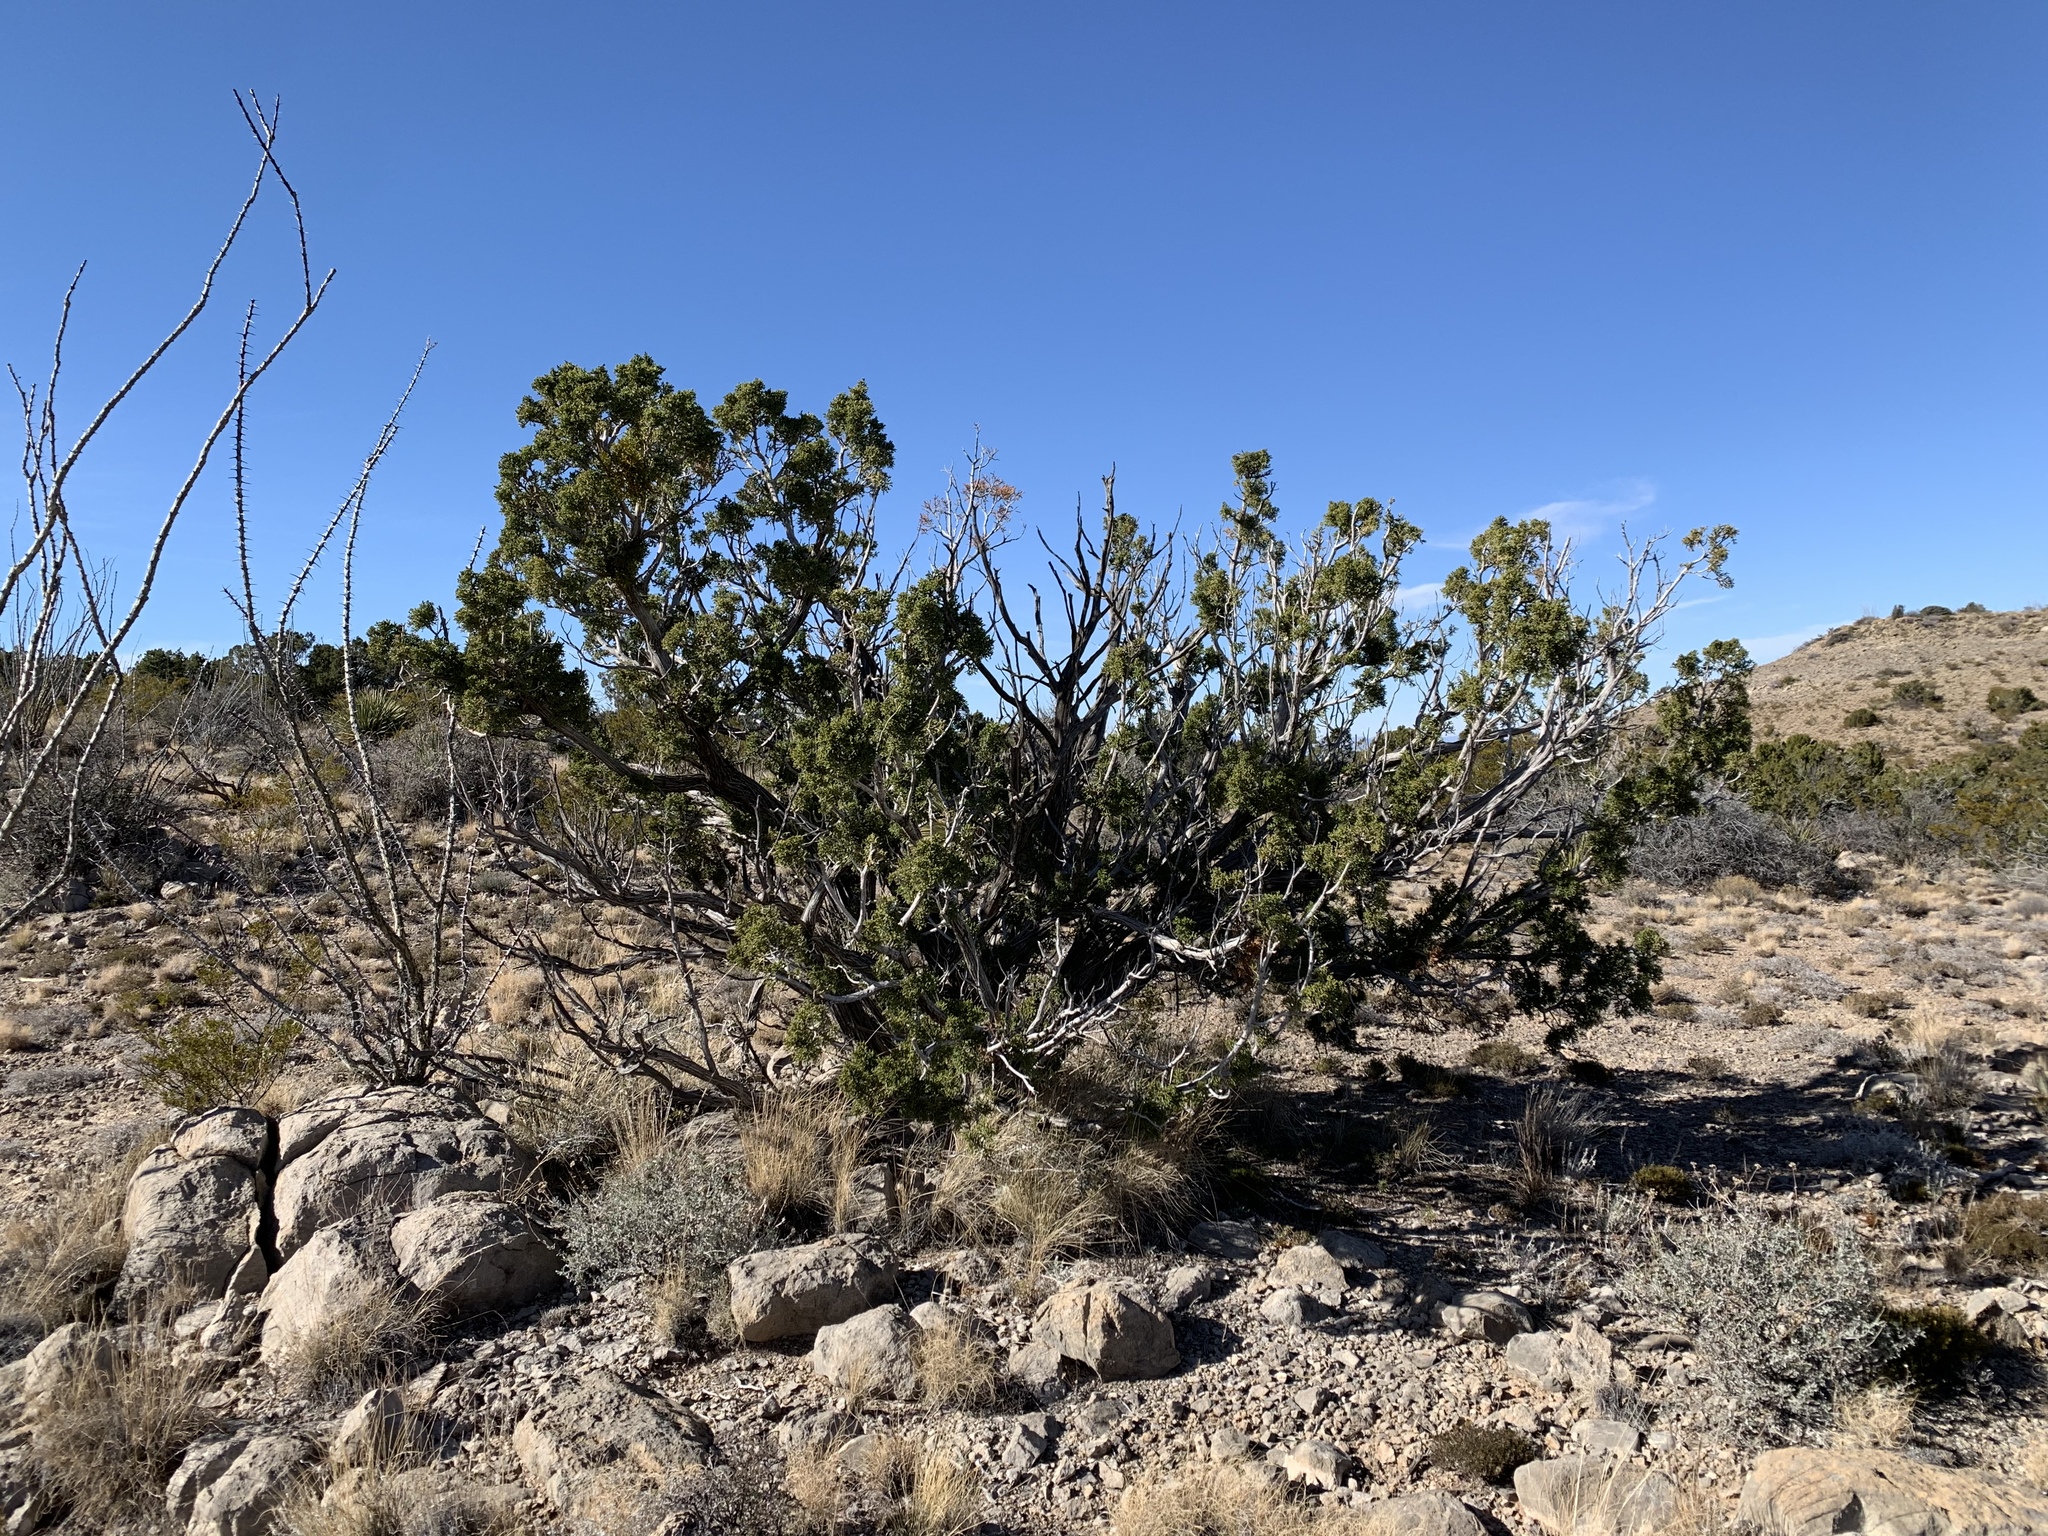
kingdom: Plantae
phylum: Tracheophyta
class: Pinopsida
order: Pinales
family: Cupressaceae
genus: Juniperus
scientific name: Juniperus monosperma
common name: One-seed juniper
